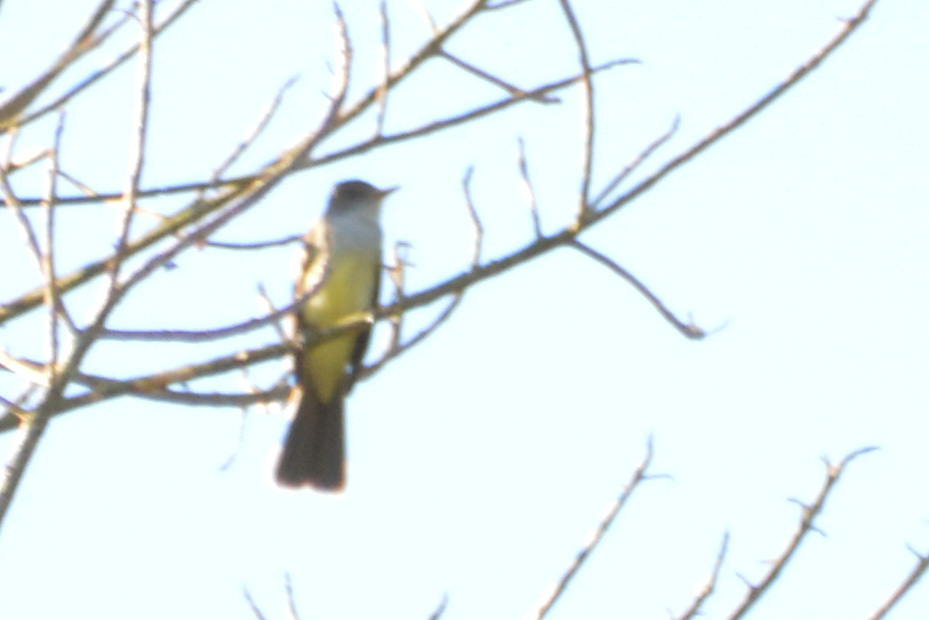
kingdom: Animalia
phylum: Chordata
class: Aves
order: Passeriformes
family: Tyrannidae
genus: Myiarchus
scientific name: Myiarchus swainsoni
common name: Swainson's flycatcher
